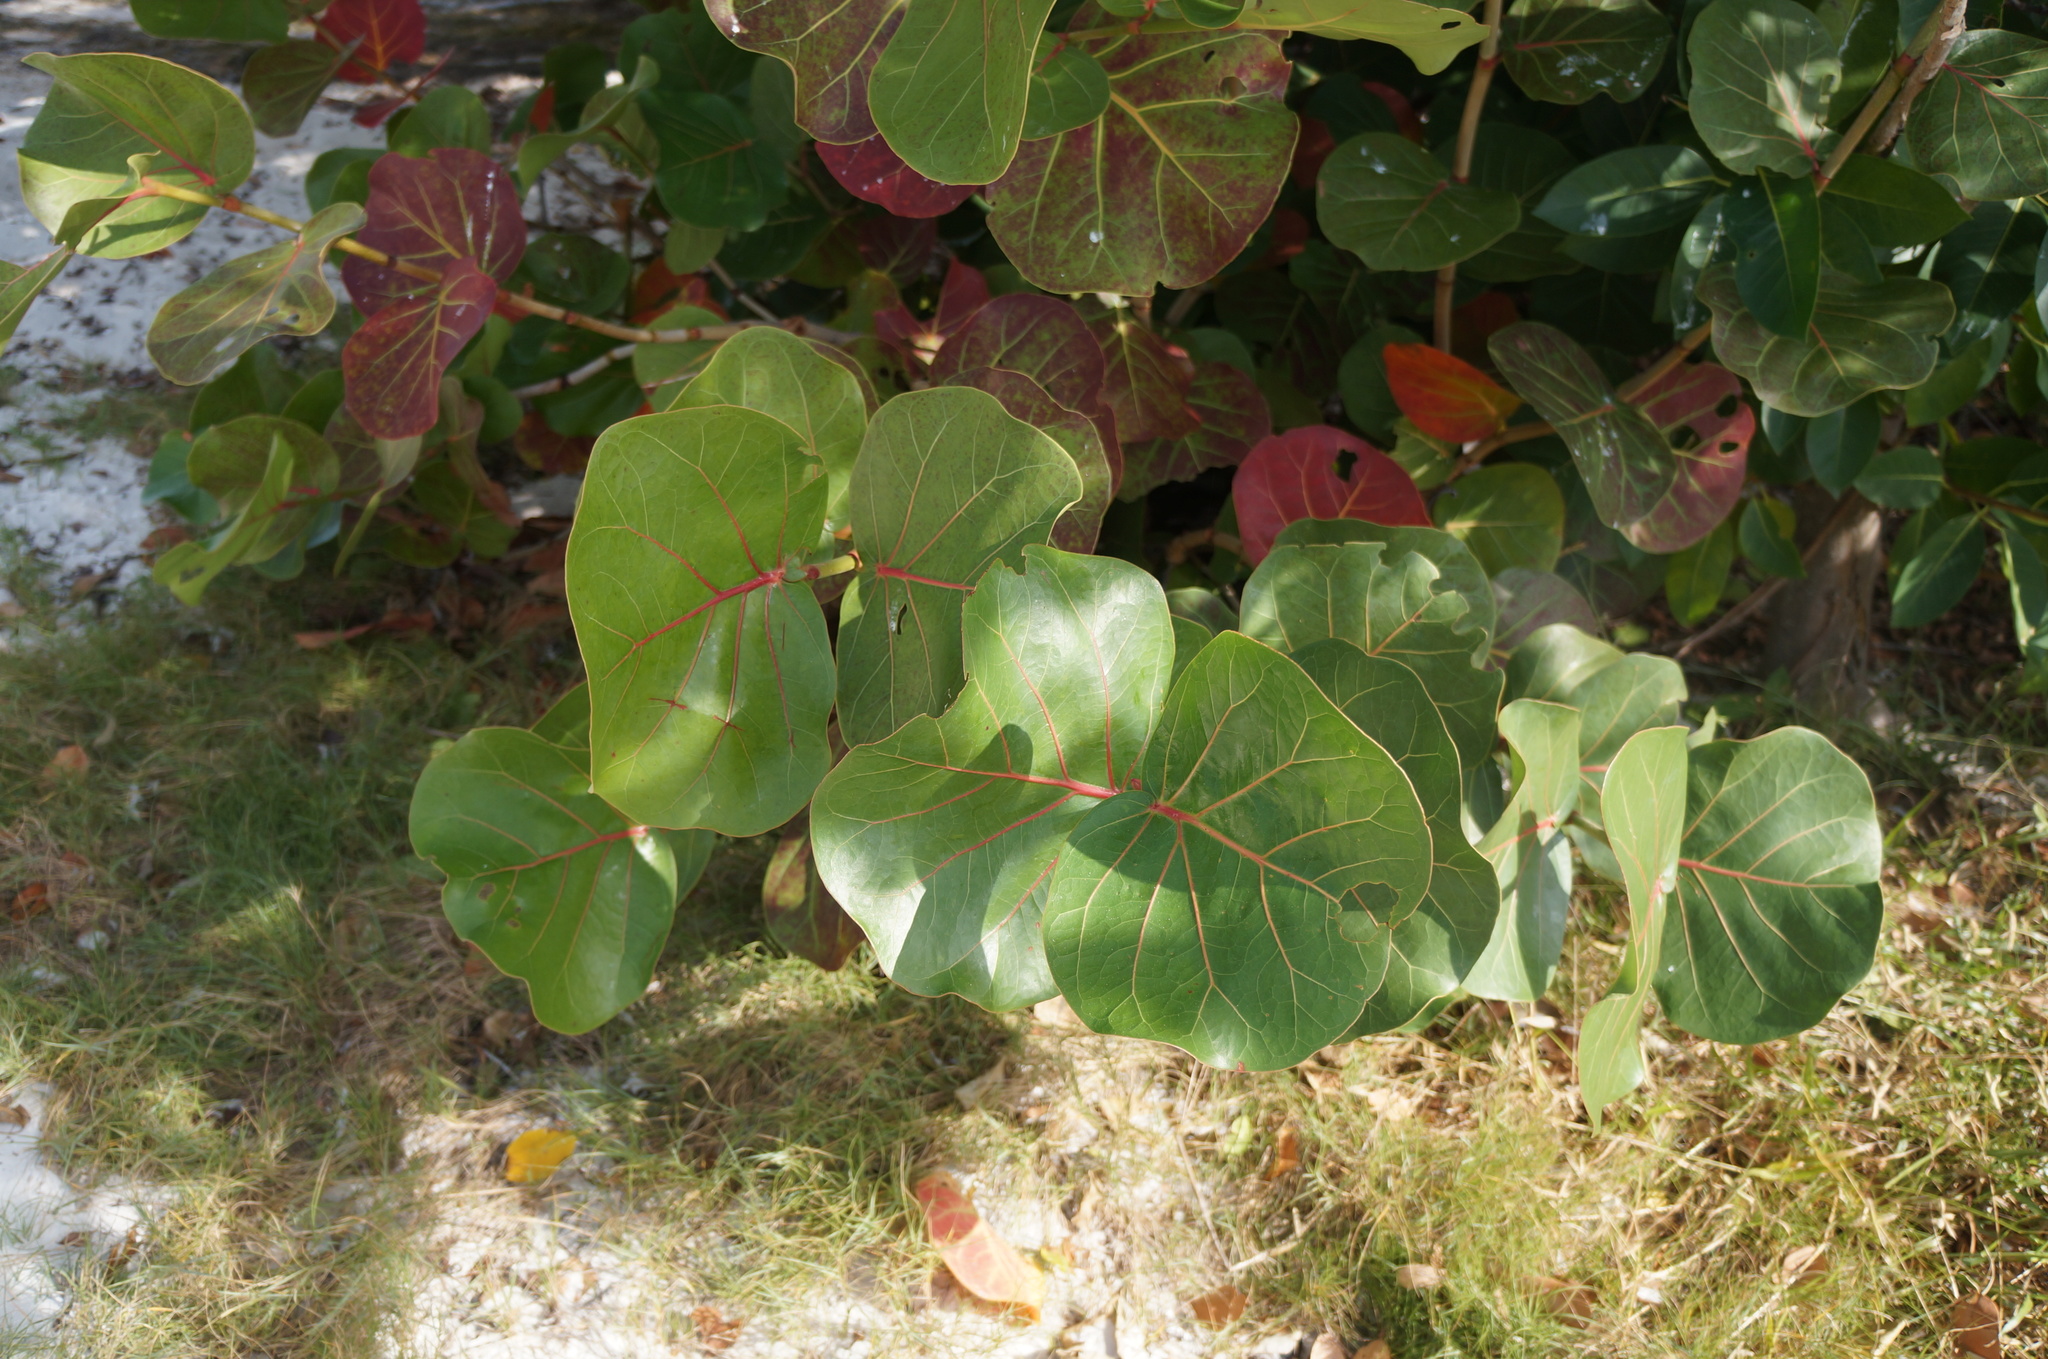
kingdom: Plantae
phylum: Tracheophyta
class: Magnoliopsida
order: Caryophyllales
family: Polygonaceae
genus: Coccoloba
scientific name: Coccoloba uvifera
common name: Seagrape
